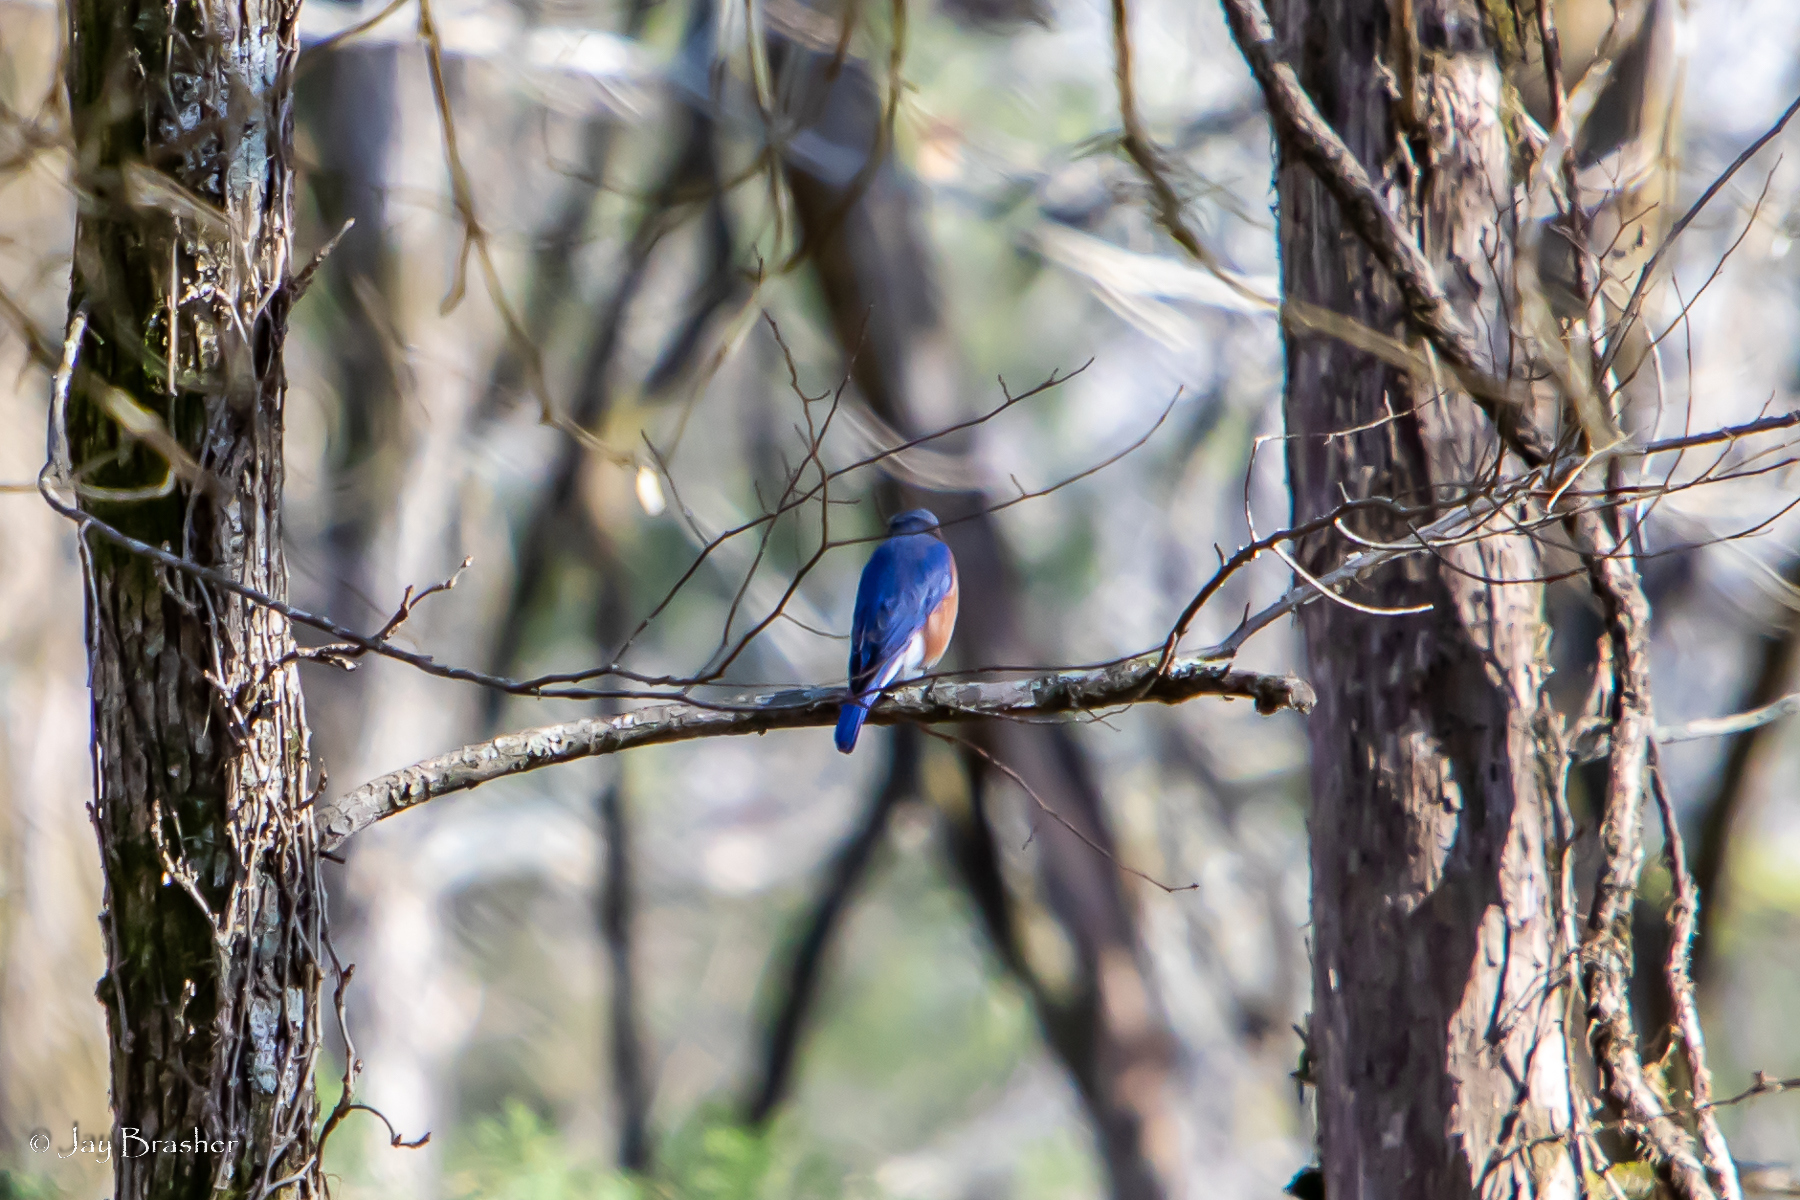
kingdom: Animalia
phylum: Chordata
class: Aves
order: Passeriformes
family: Turdidae
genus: Sialia
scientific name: Sialia sialis
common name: Eastern bluebird
